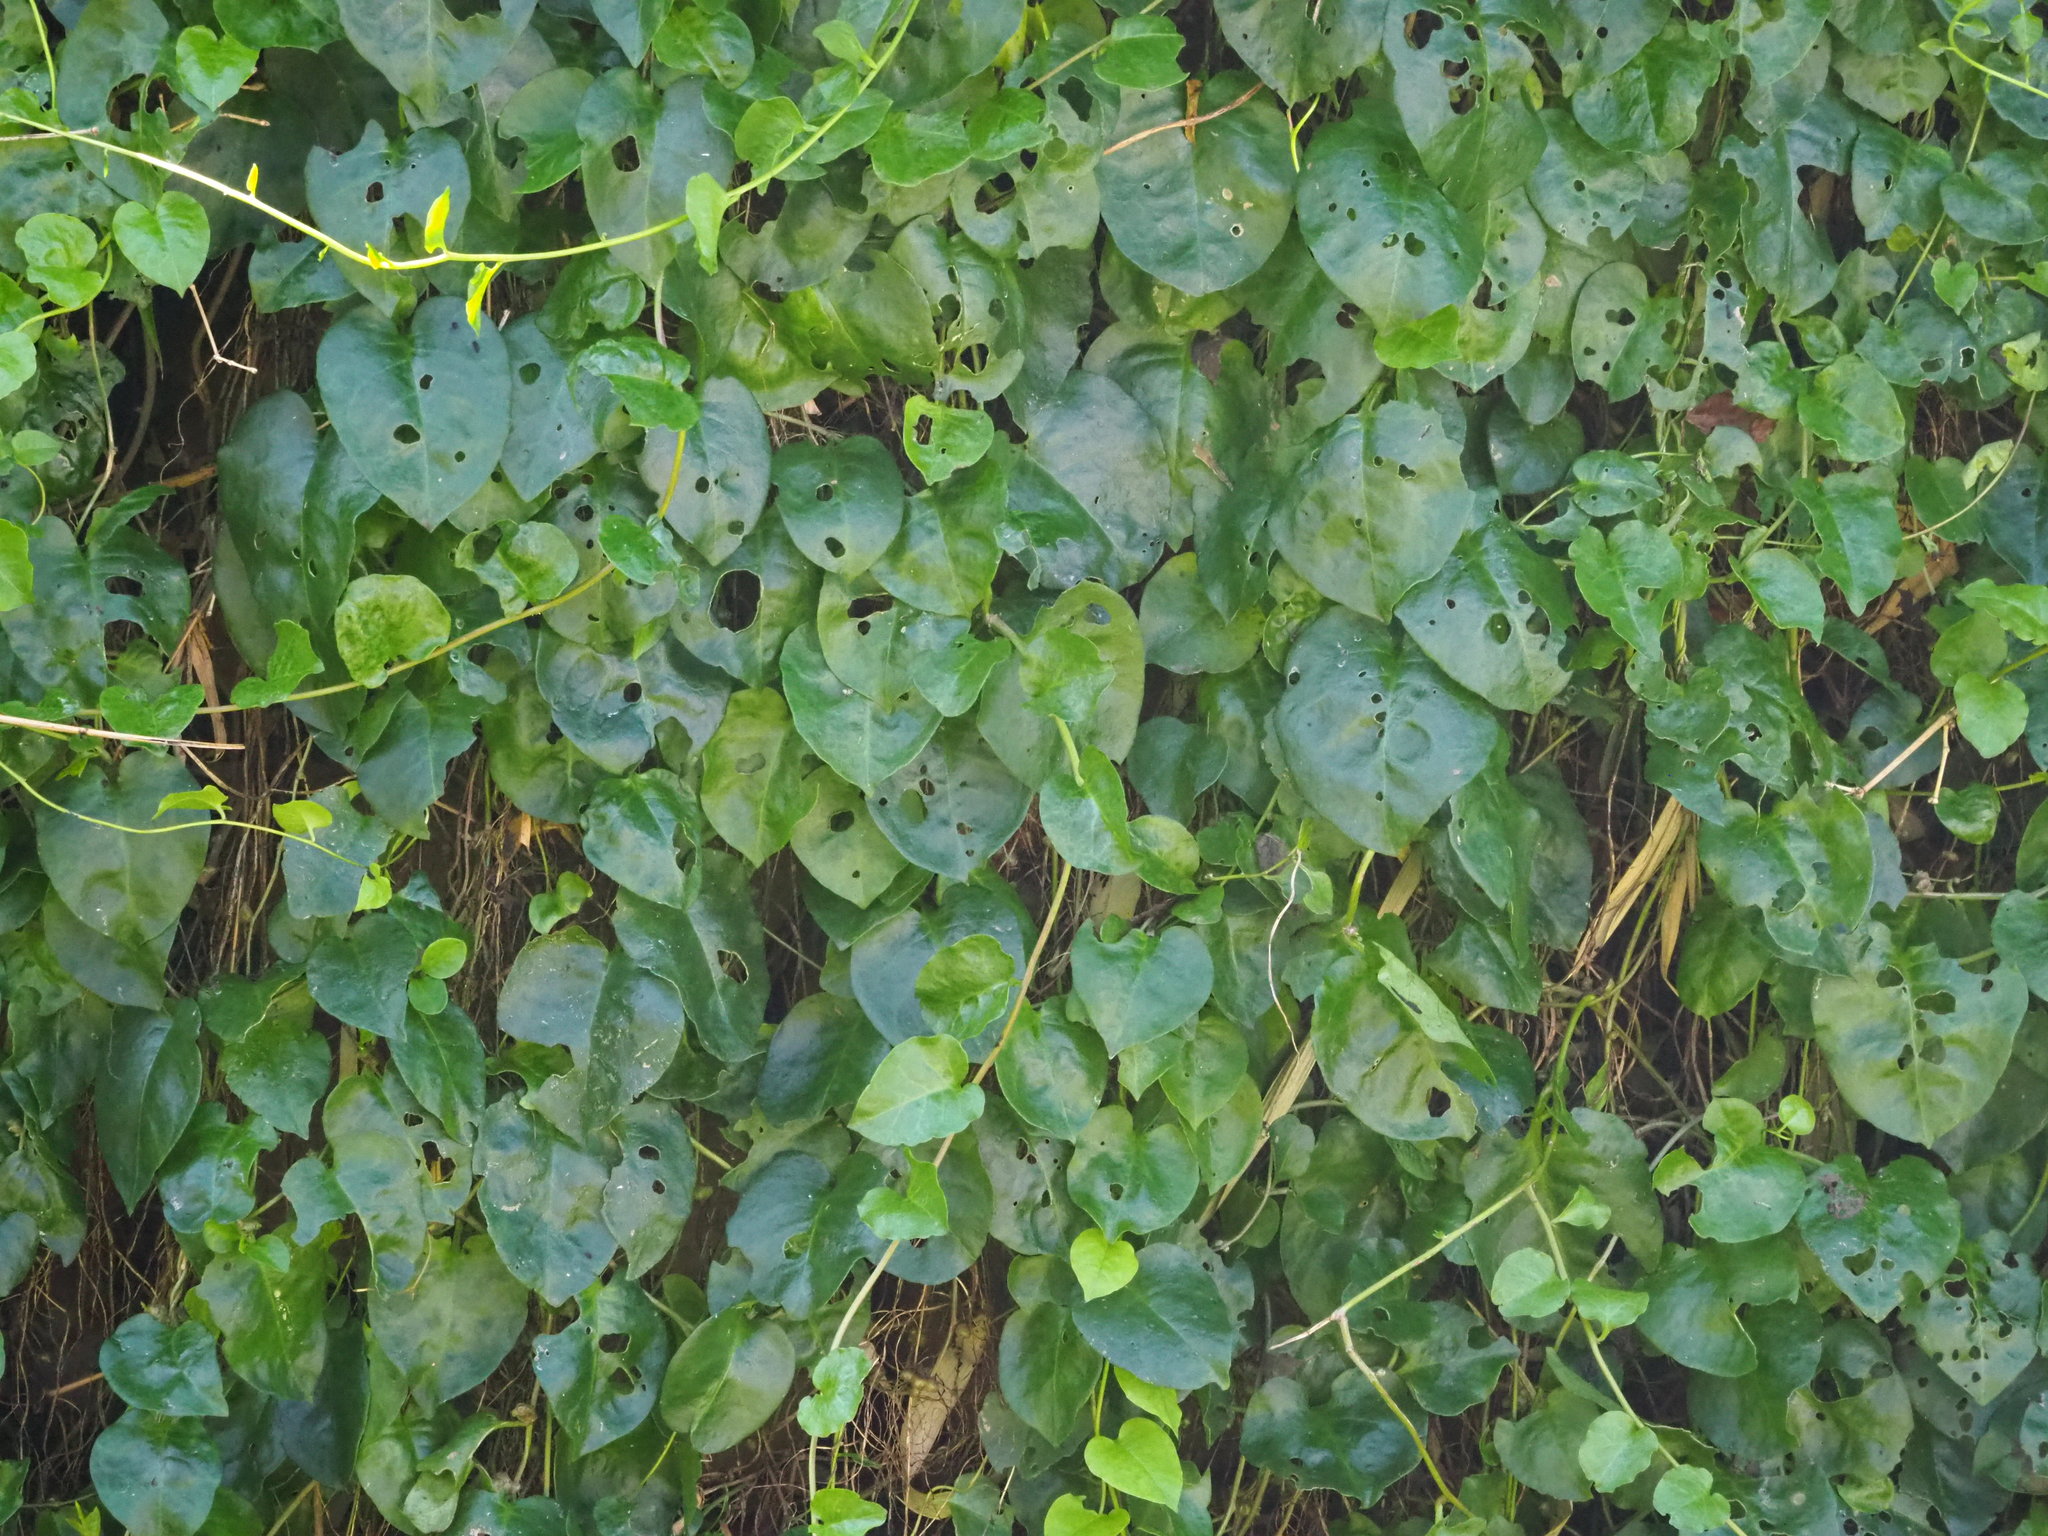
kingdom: Plantae
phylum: Tracheophyta
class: Magnoliopsida
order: Caryophyllales
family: Basellaceae
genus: Anredera
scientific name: Anredera cordifolia
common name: Heartleaf madeiravine
